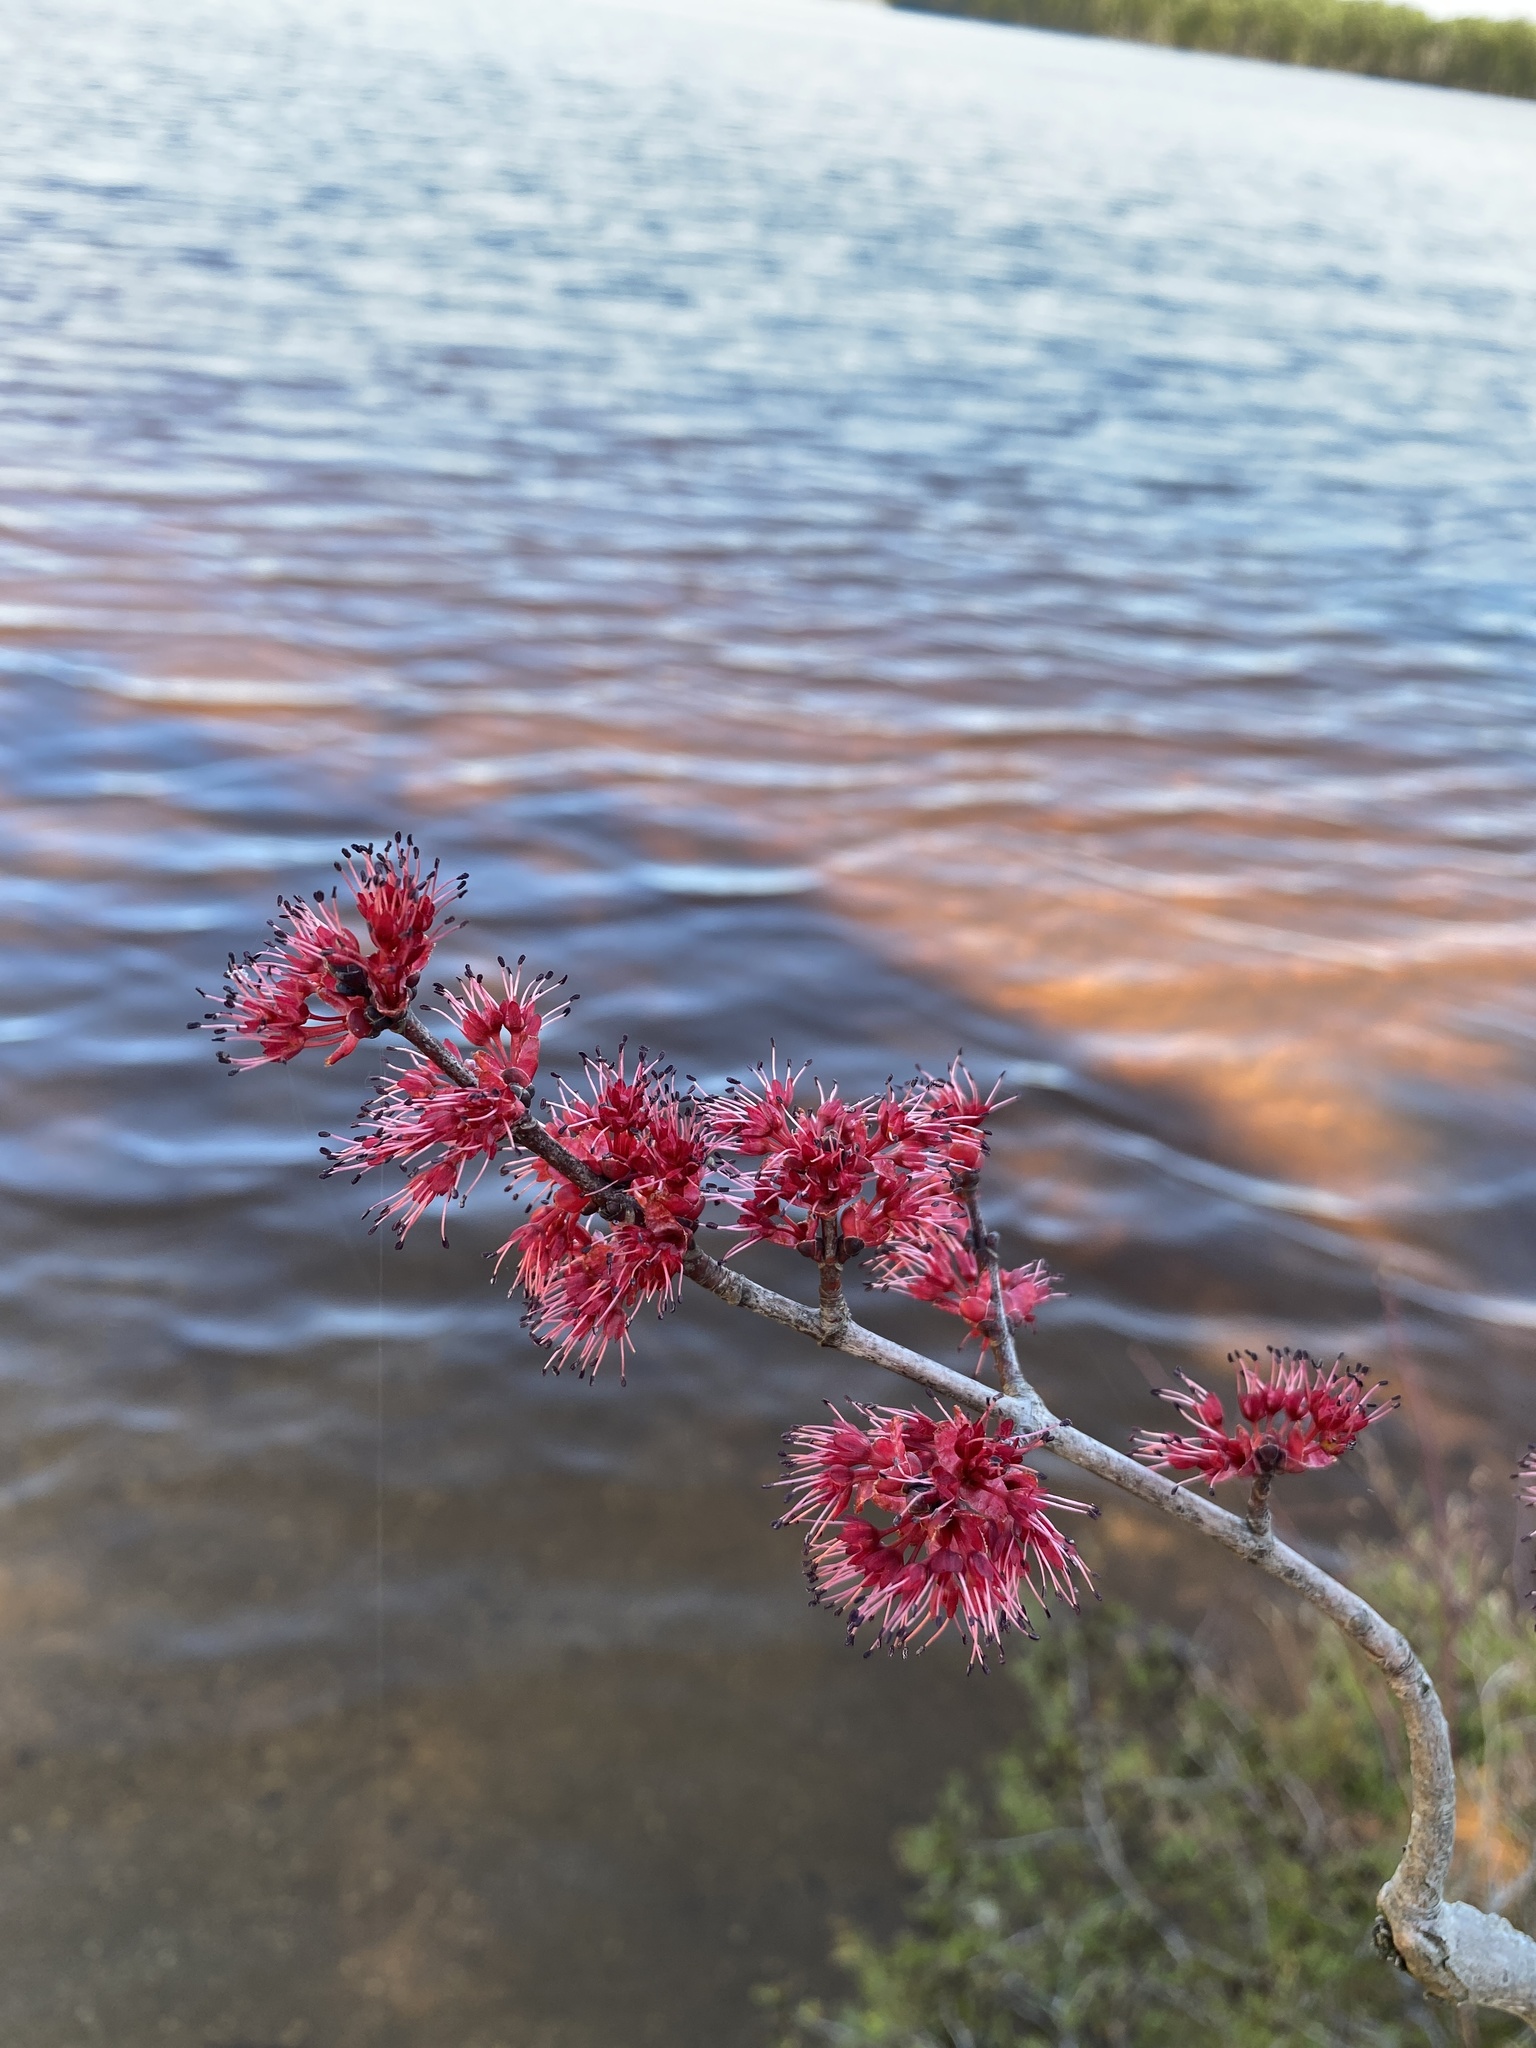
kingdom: Plantae
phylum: Tracheophyta
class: Magnoliopsida
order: Sapindales
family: Sapindaceae
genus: Acer
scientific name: Acer rubrum
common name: Red maple
